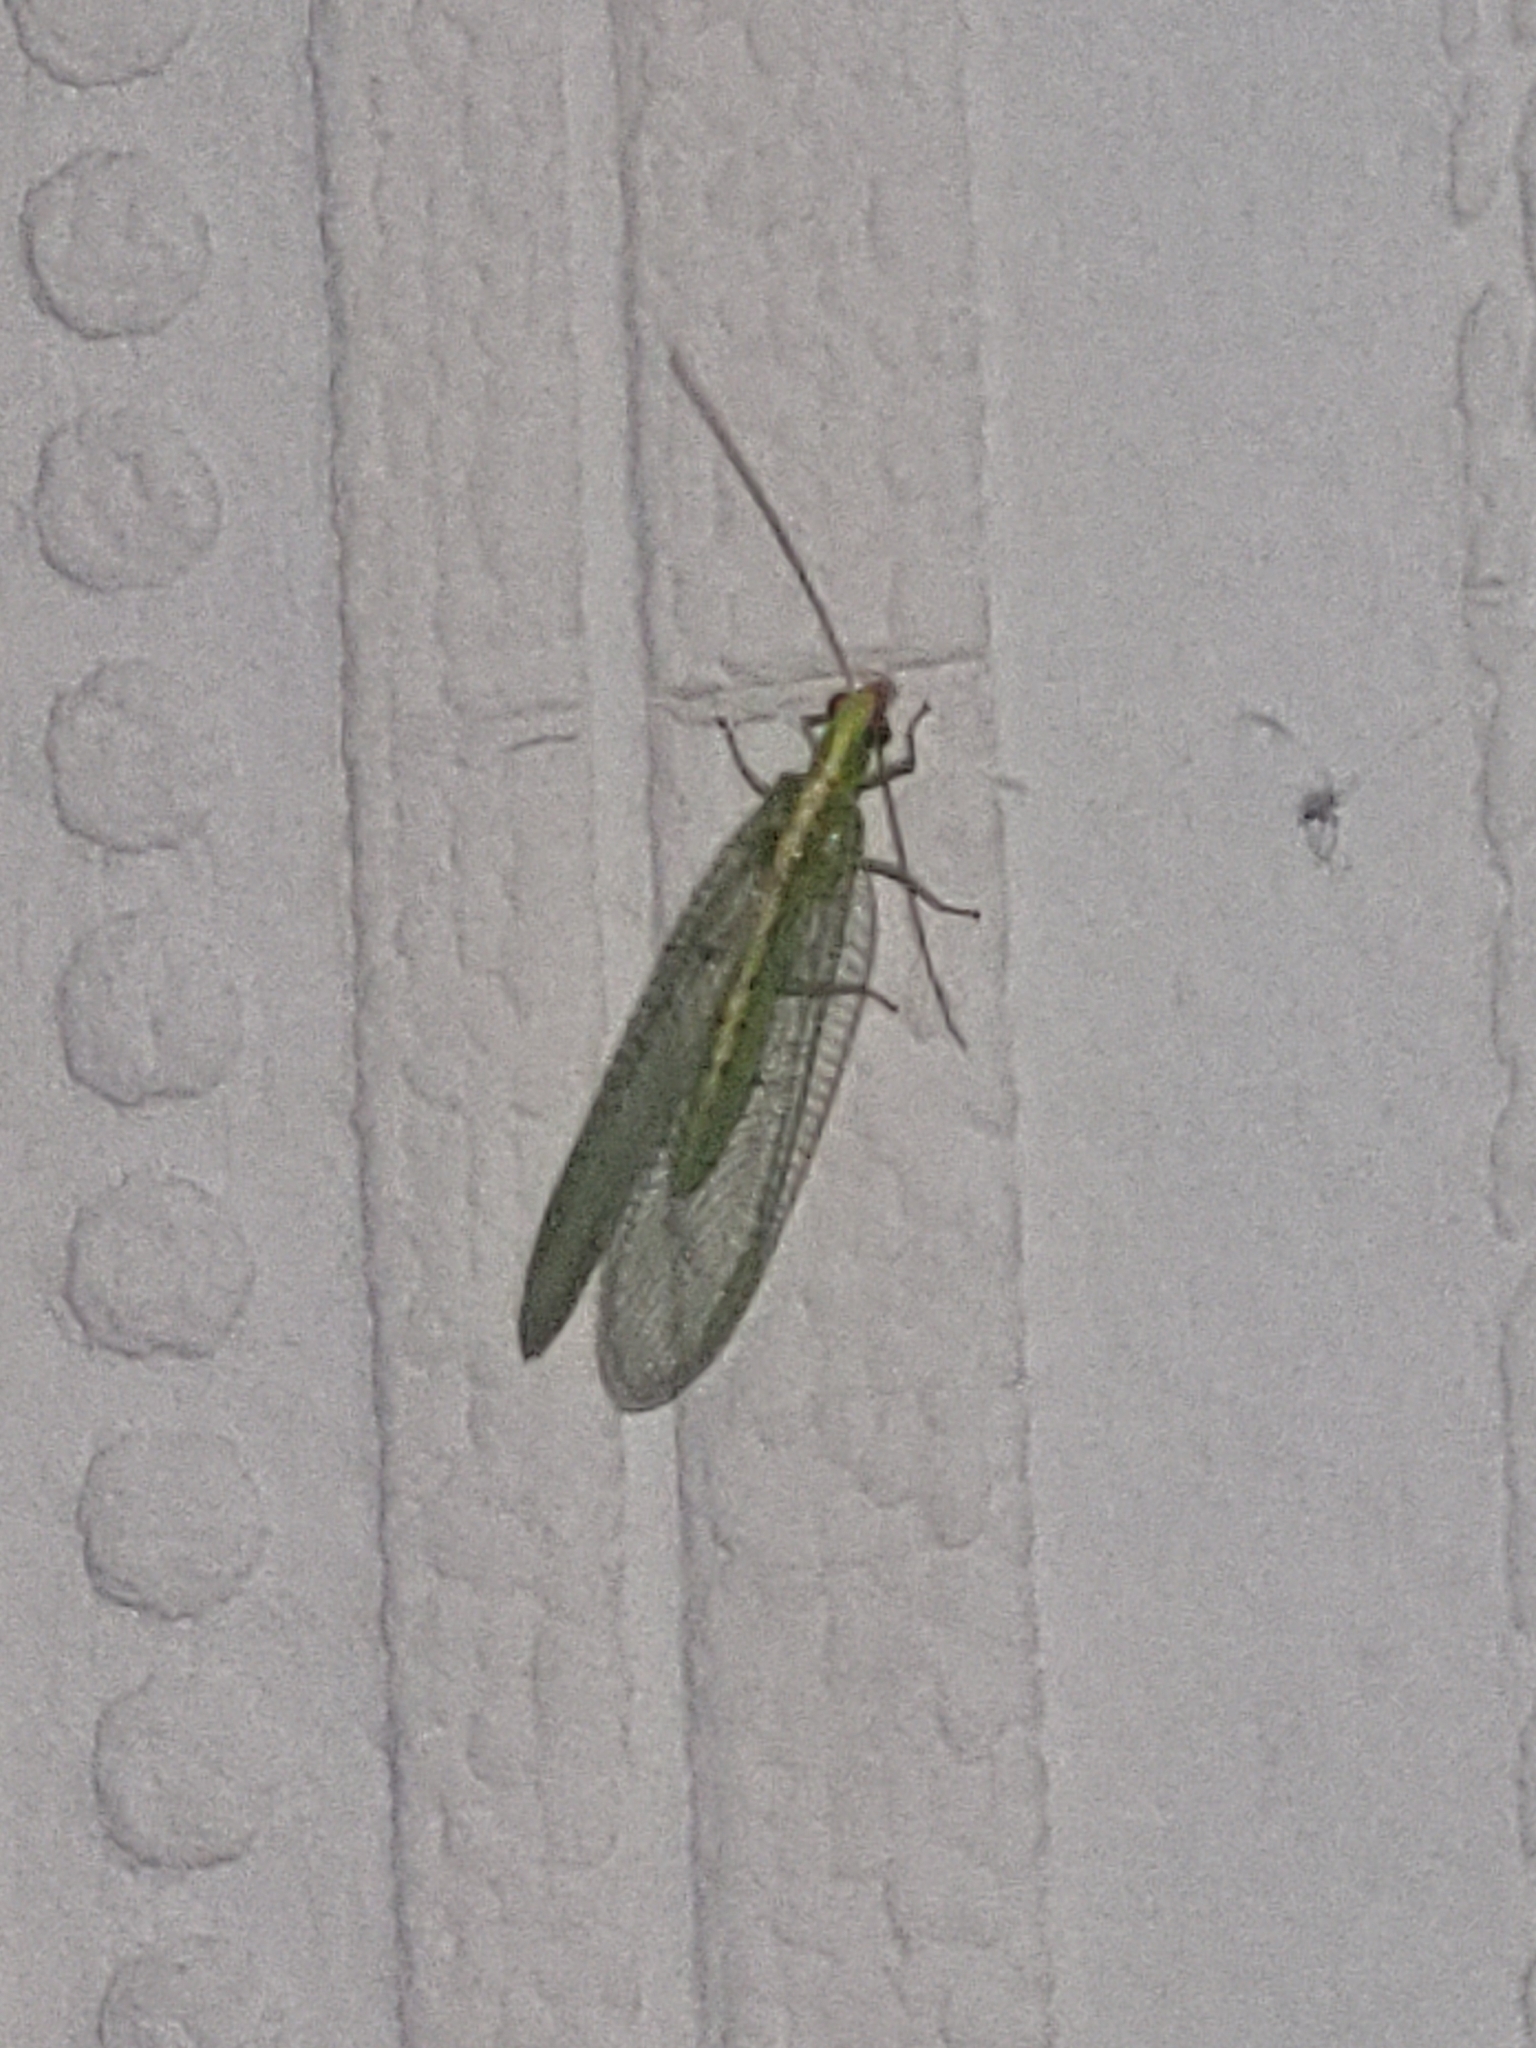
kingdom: Animalia
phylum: Arthropoda
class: Insecta
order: Neuroptera
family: Chrysopidae
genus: Chrysoperla
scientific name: Chrysoperla
